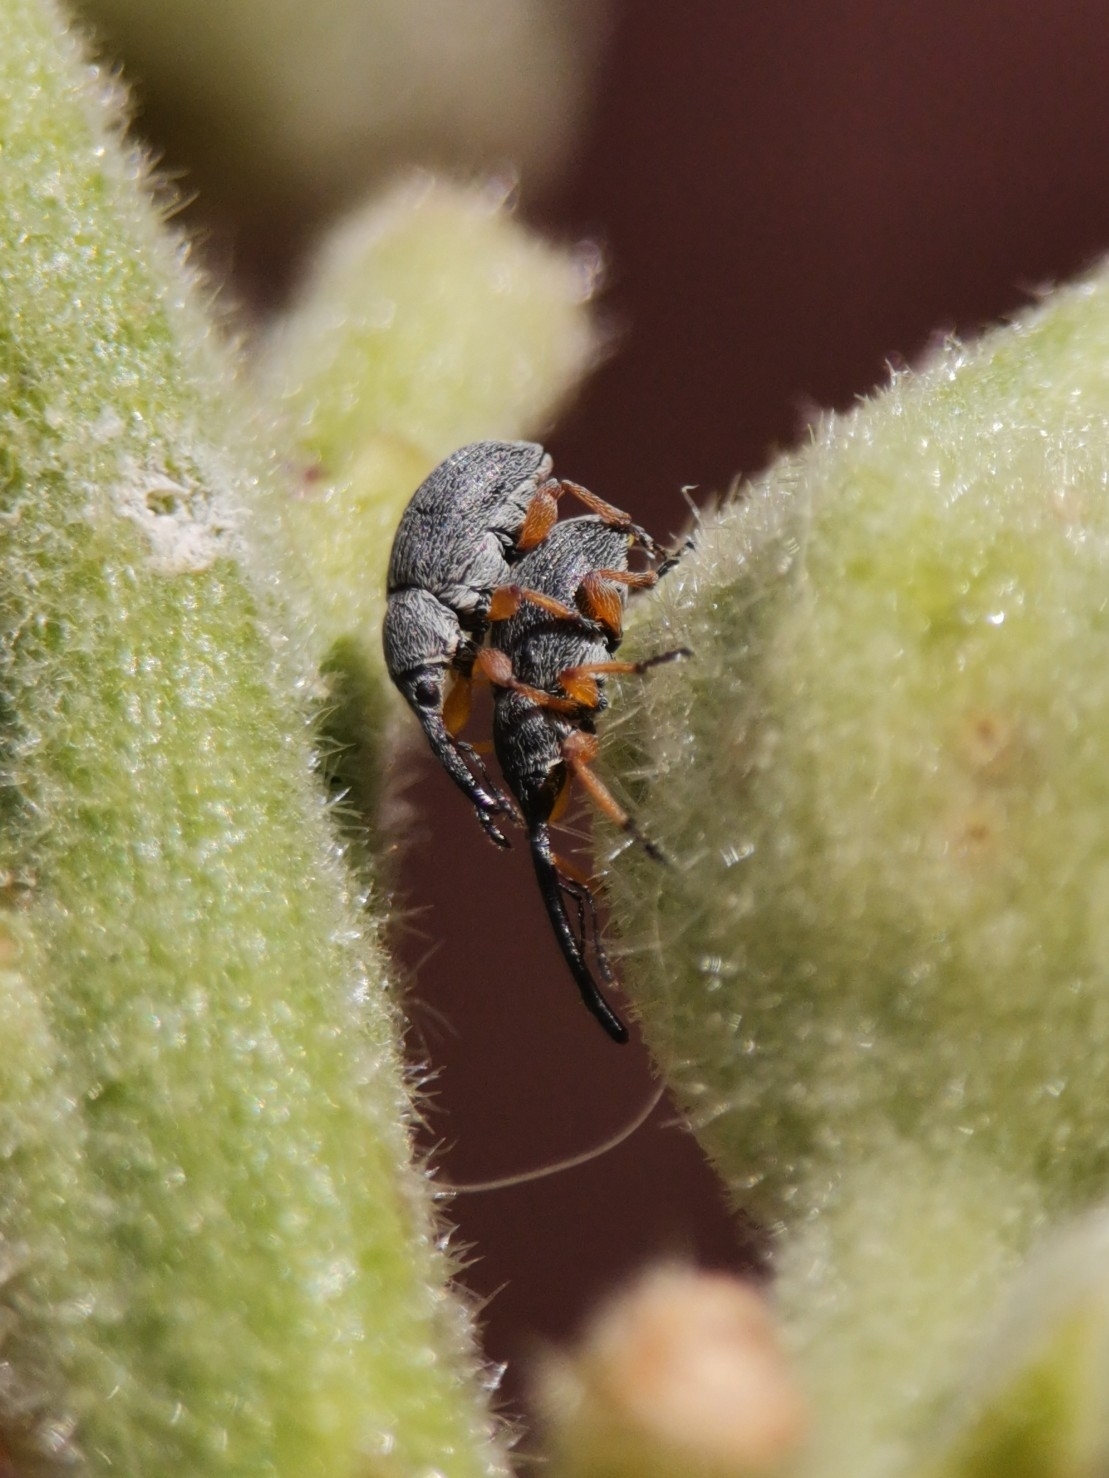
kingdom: Animalia
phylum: Arthropoda
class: Insecta
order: Coleoptera
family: Brentidae
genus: Rhopalapion
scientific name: Rhopalapion longirostre
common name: Hollyhock weevil
